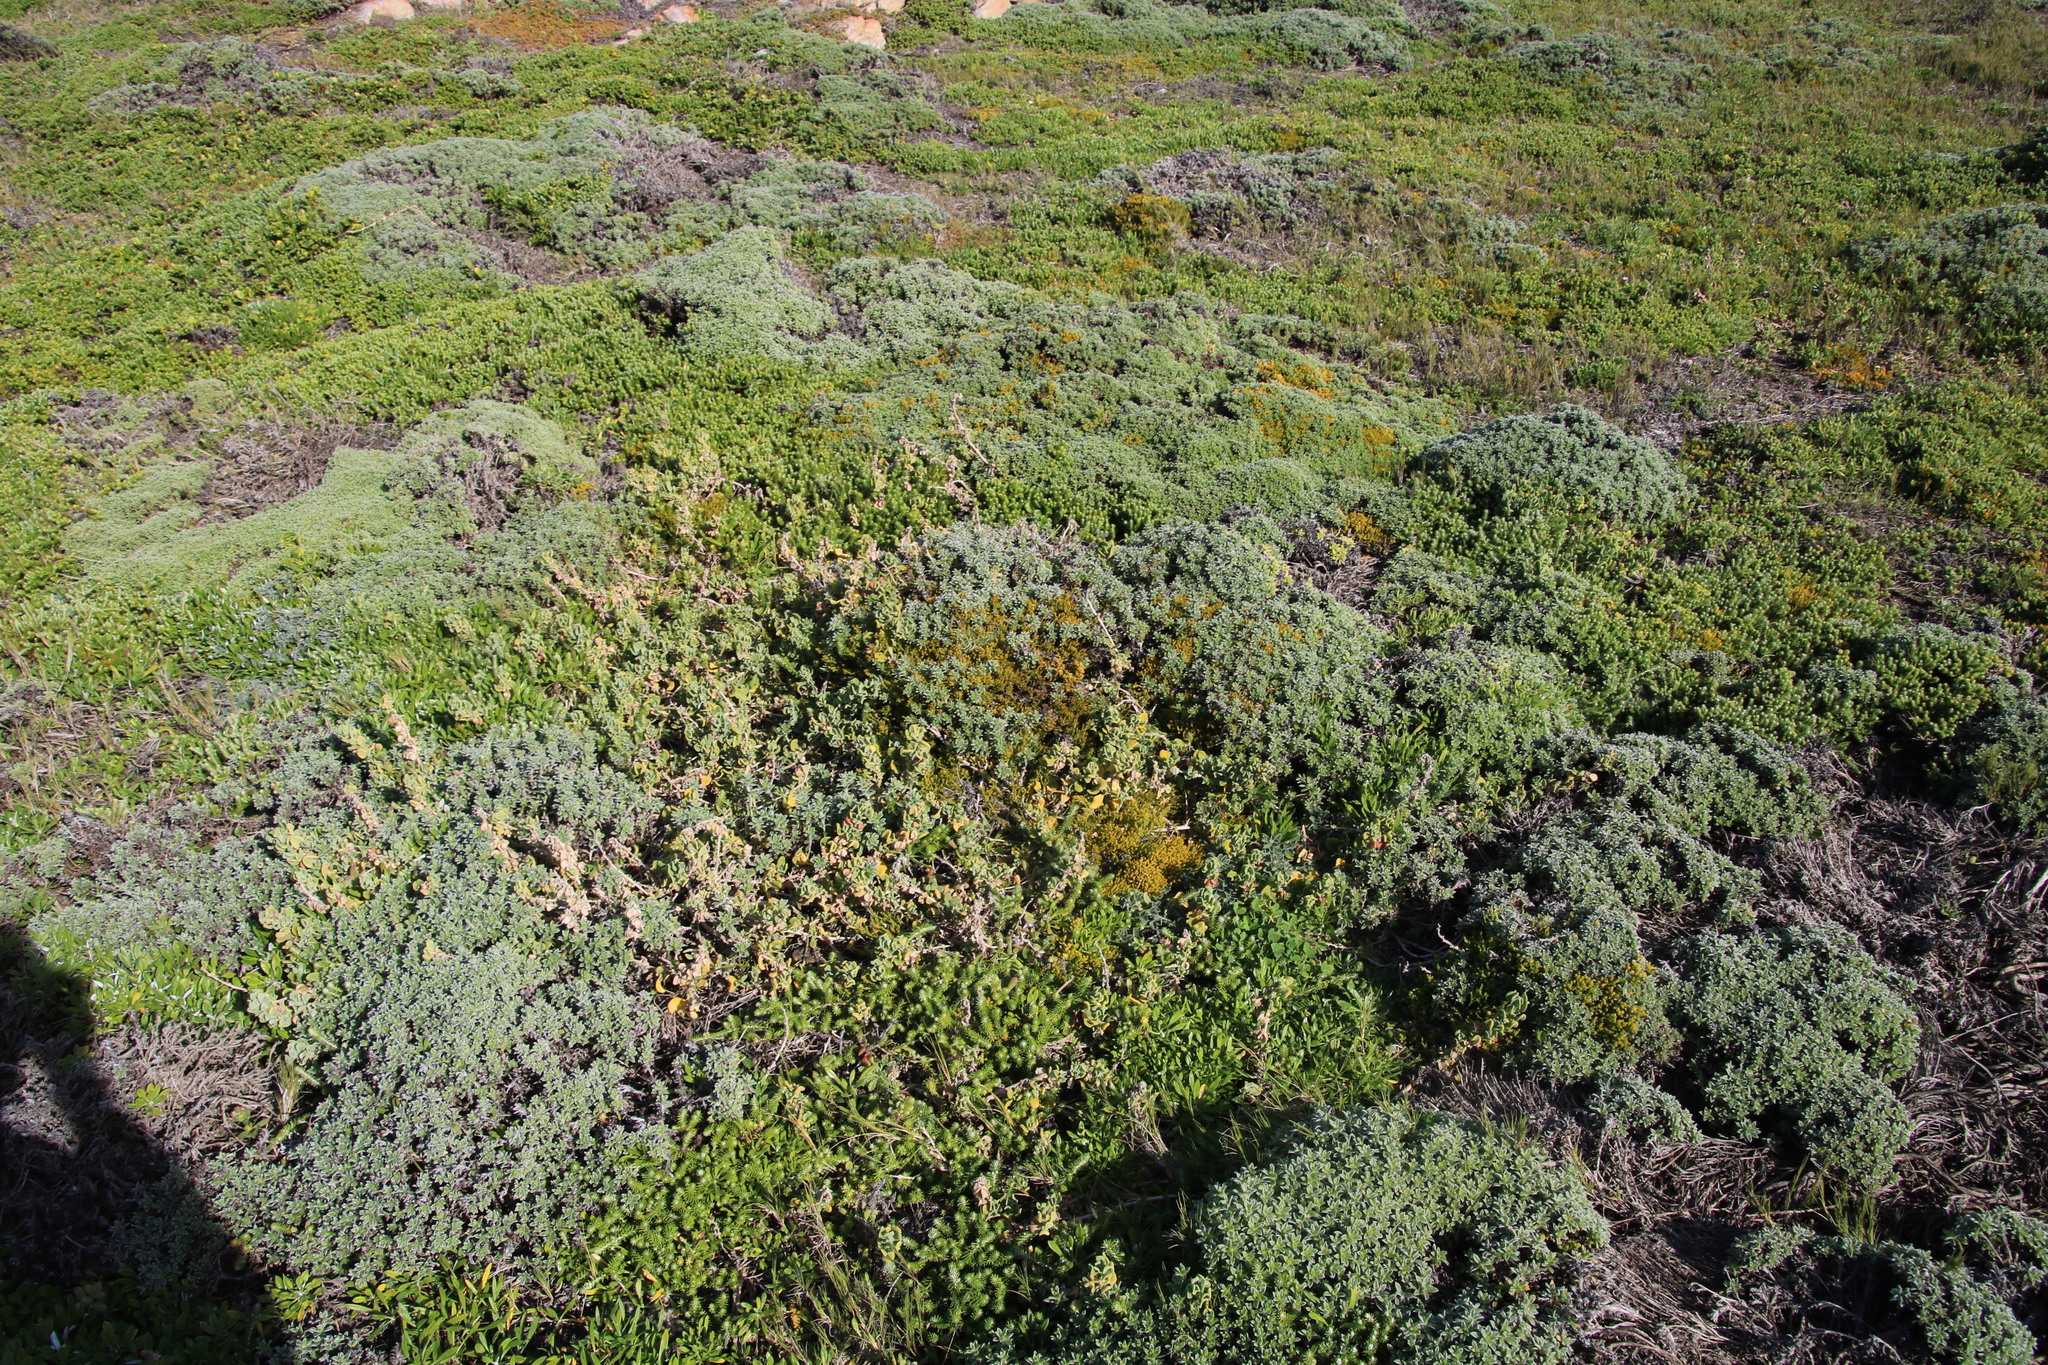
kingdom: Plantae
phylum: Tracheophyta
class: Magnoliopsida
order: Santalales
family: Thesiaceae
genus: Thesium
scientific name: Thesium fragile
